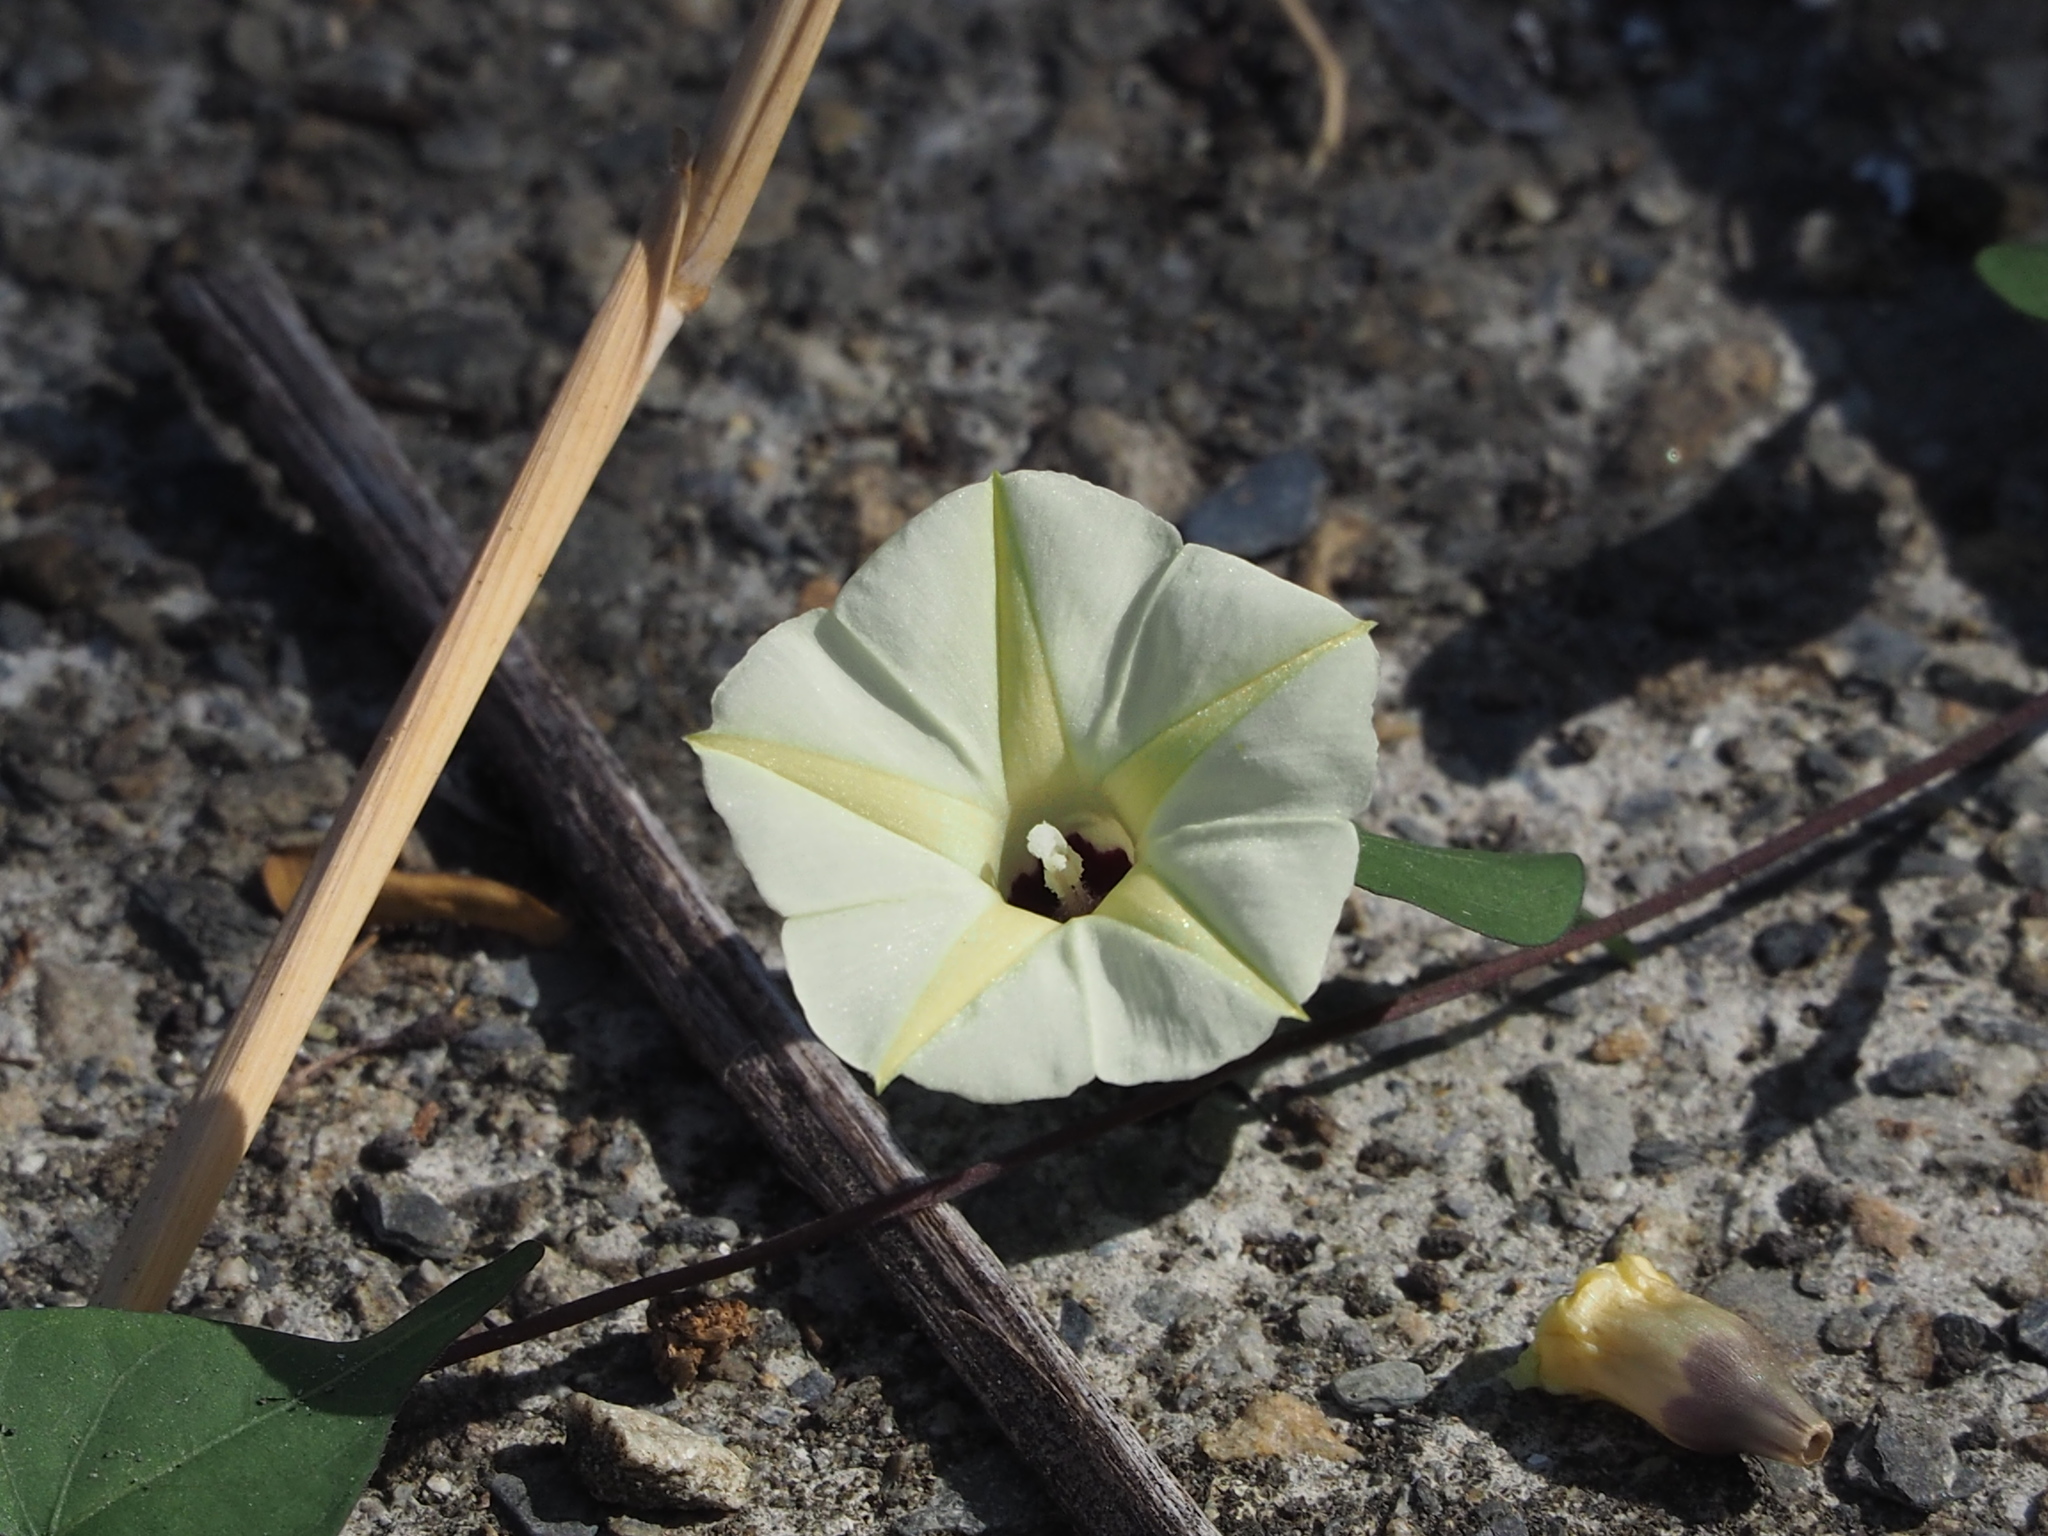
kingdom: Plantae
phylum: Tracheophyta
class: Magnoliopsida
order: Solanales
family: Convolvulaceae
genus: Ipomoea
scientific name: Ipomoea obscura
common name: Obscure morning-glory
